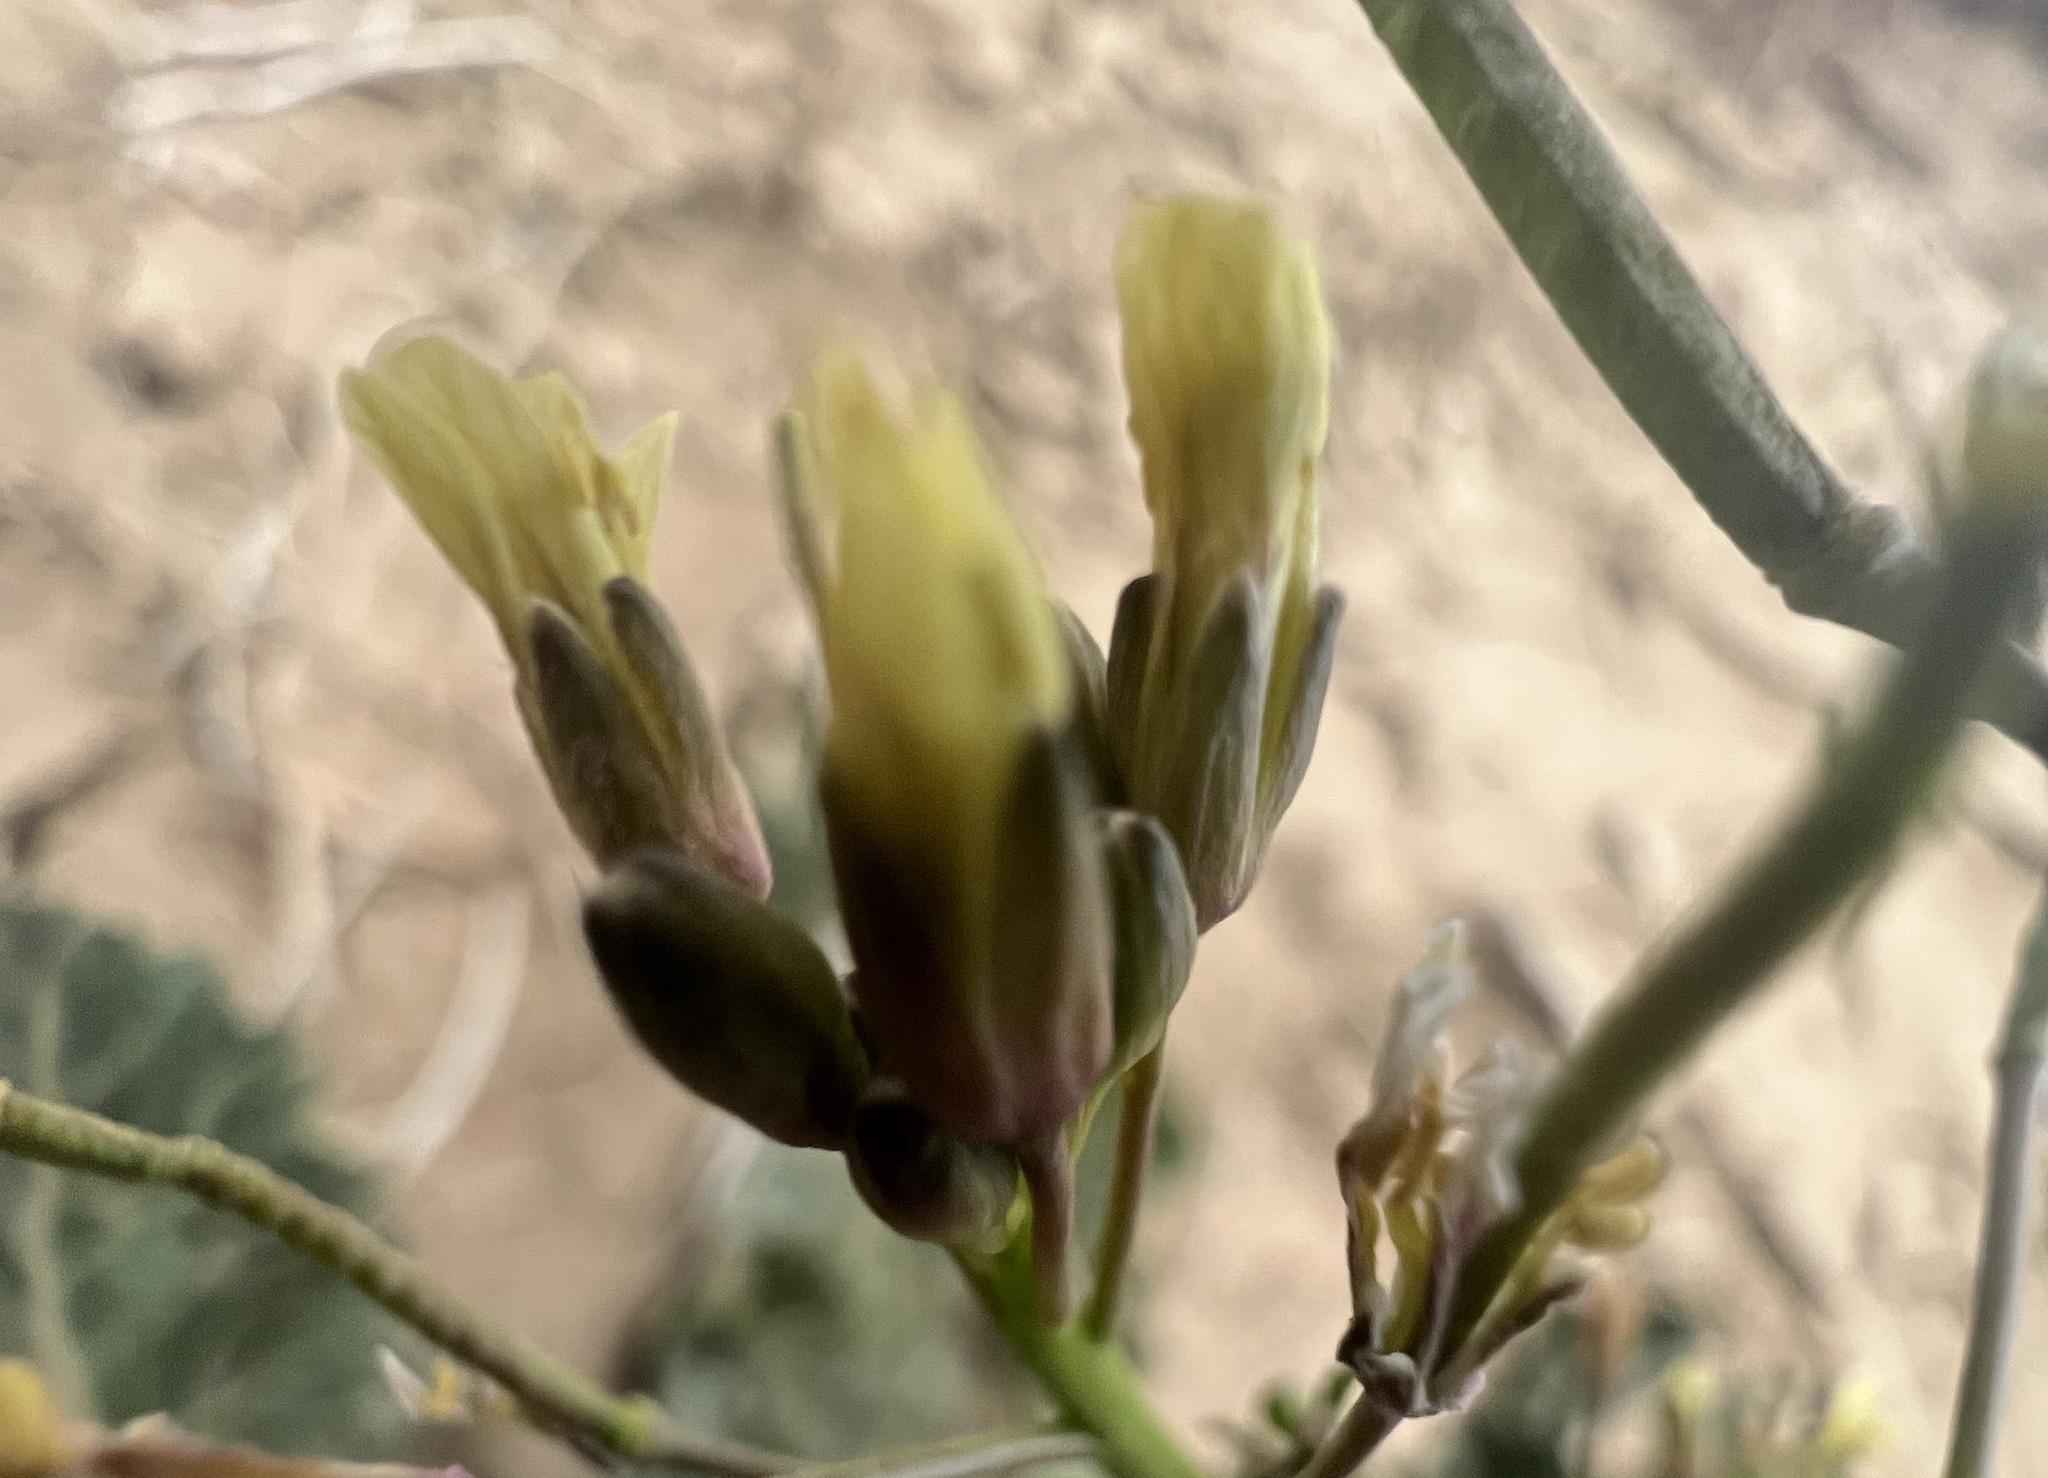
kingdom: Plantae
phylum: Tracheophyta
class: Magnoliopsida
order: Brassicales
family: Brassicaceae
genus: Brassica
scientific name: Brassica tournefortii
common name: Pale cabbage
